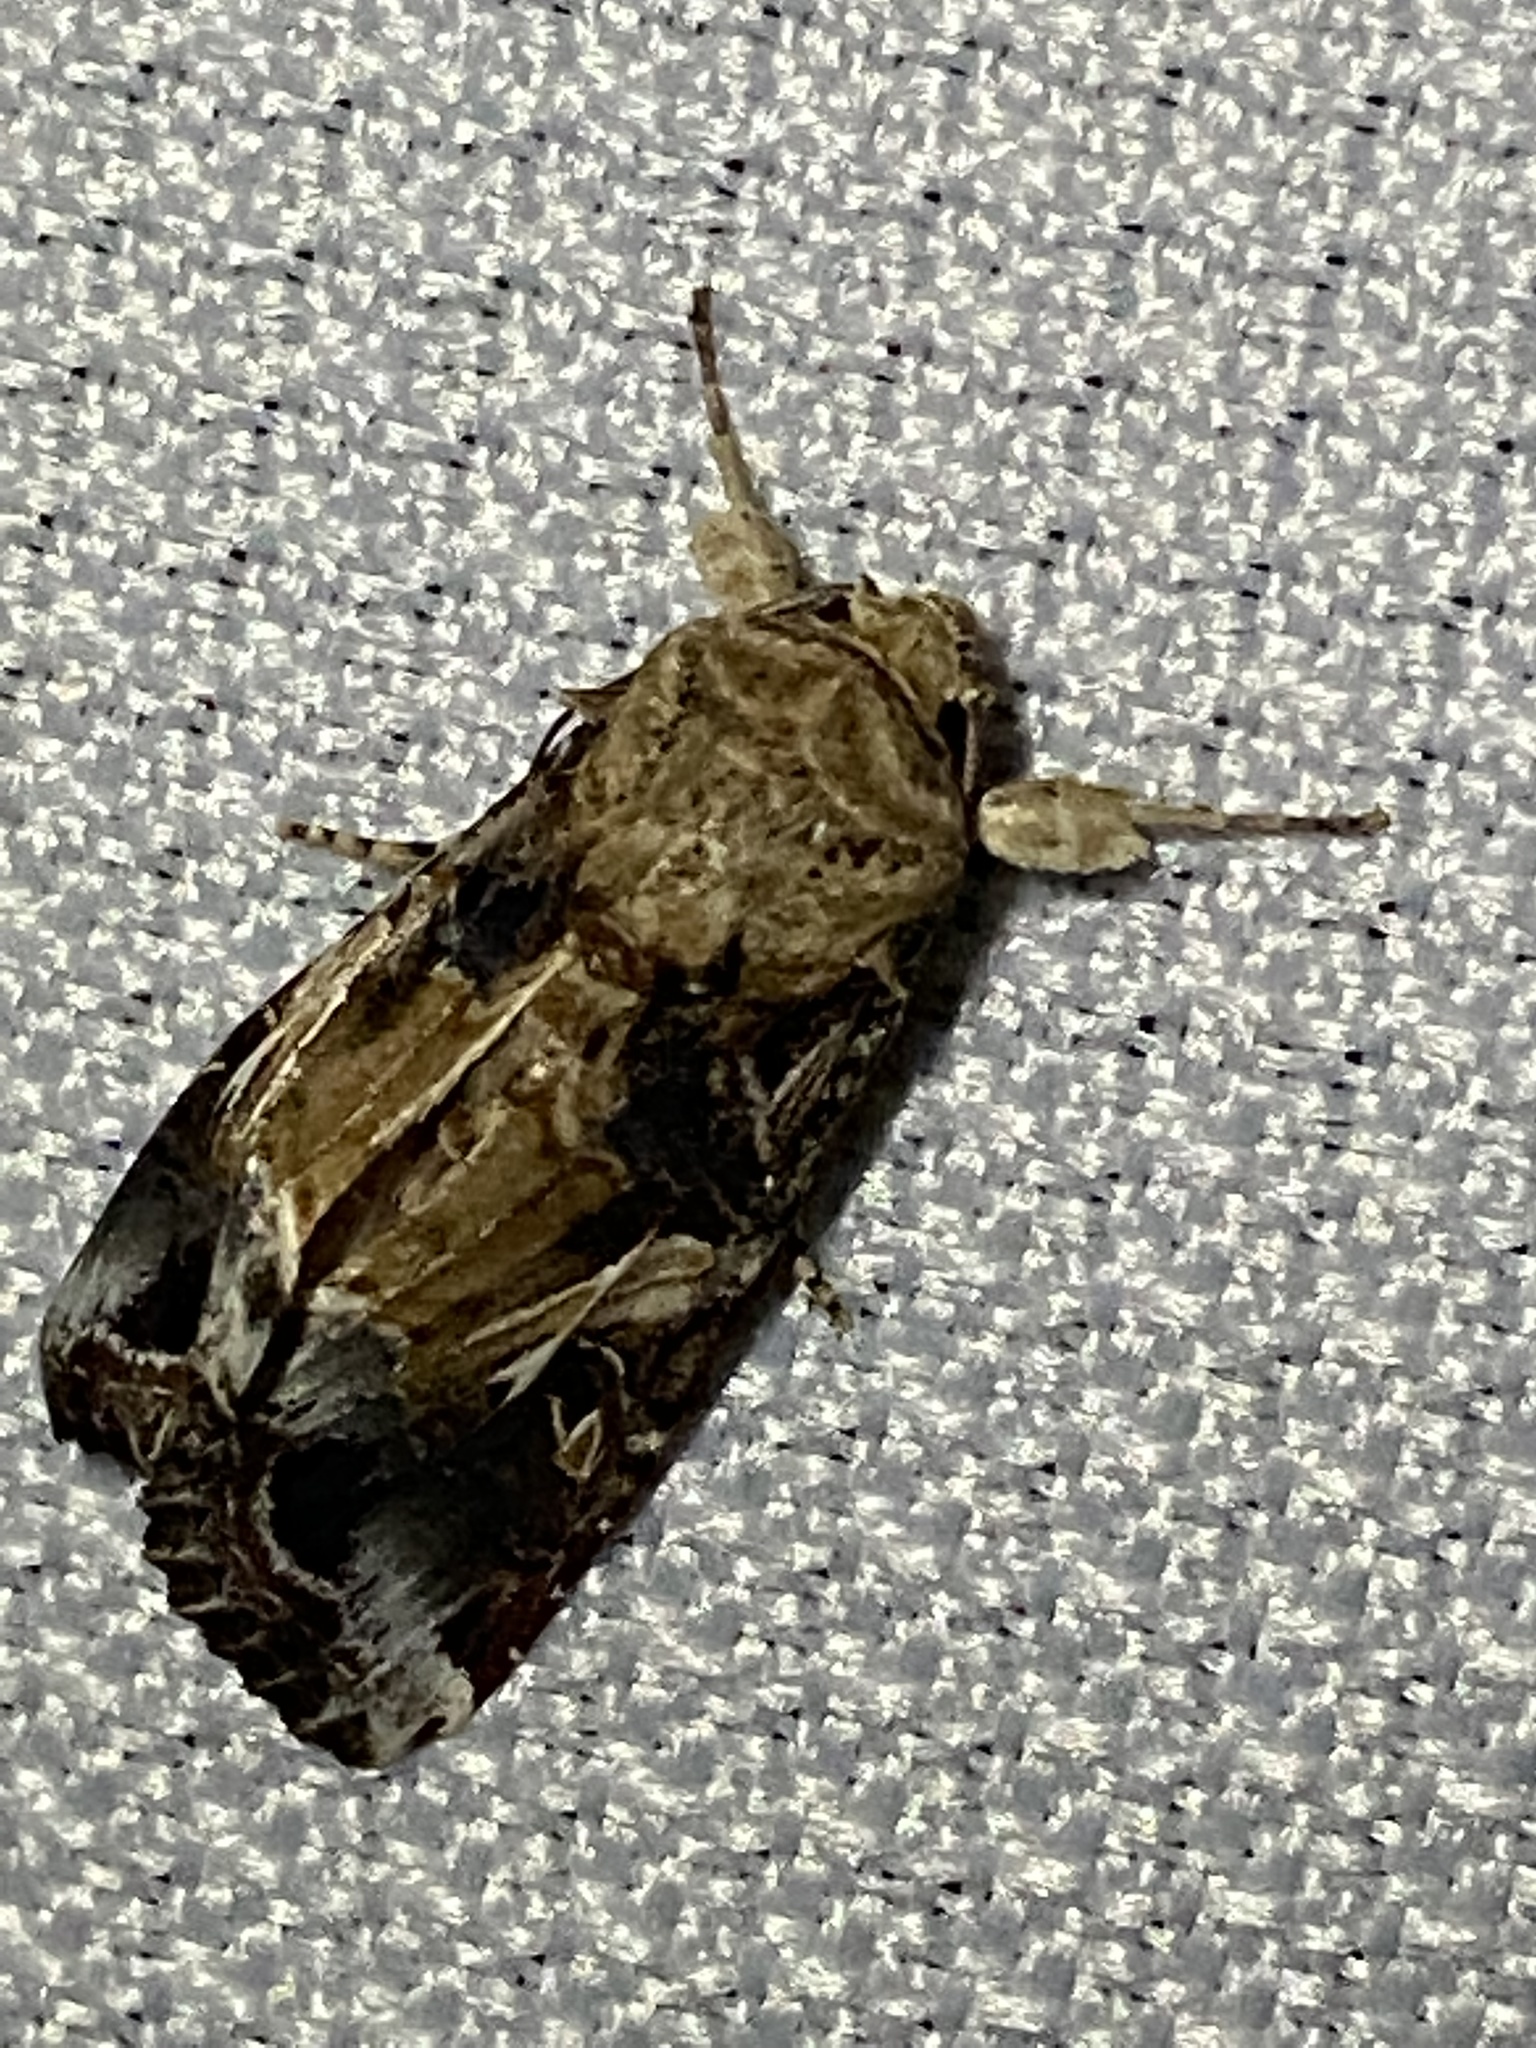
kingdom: Animalia
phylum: Arthropoda
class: Insecta
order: Lepidoptera
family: Noctuidae
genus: Spodoptera
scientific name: Spodoptera ornithogalli
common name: Yellow-striped armyworm
